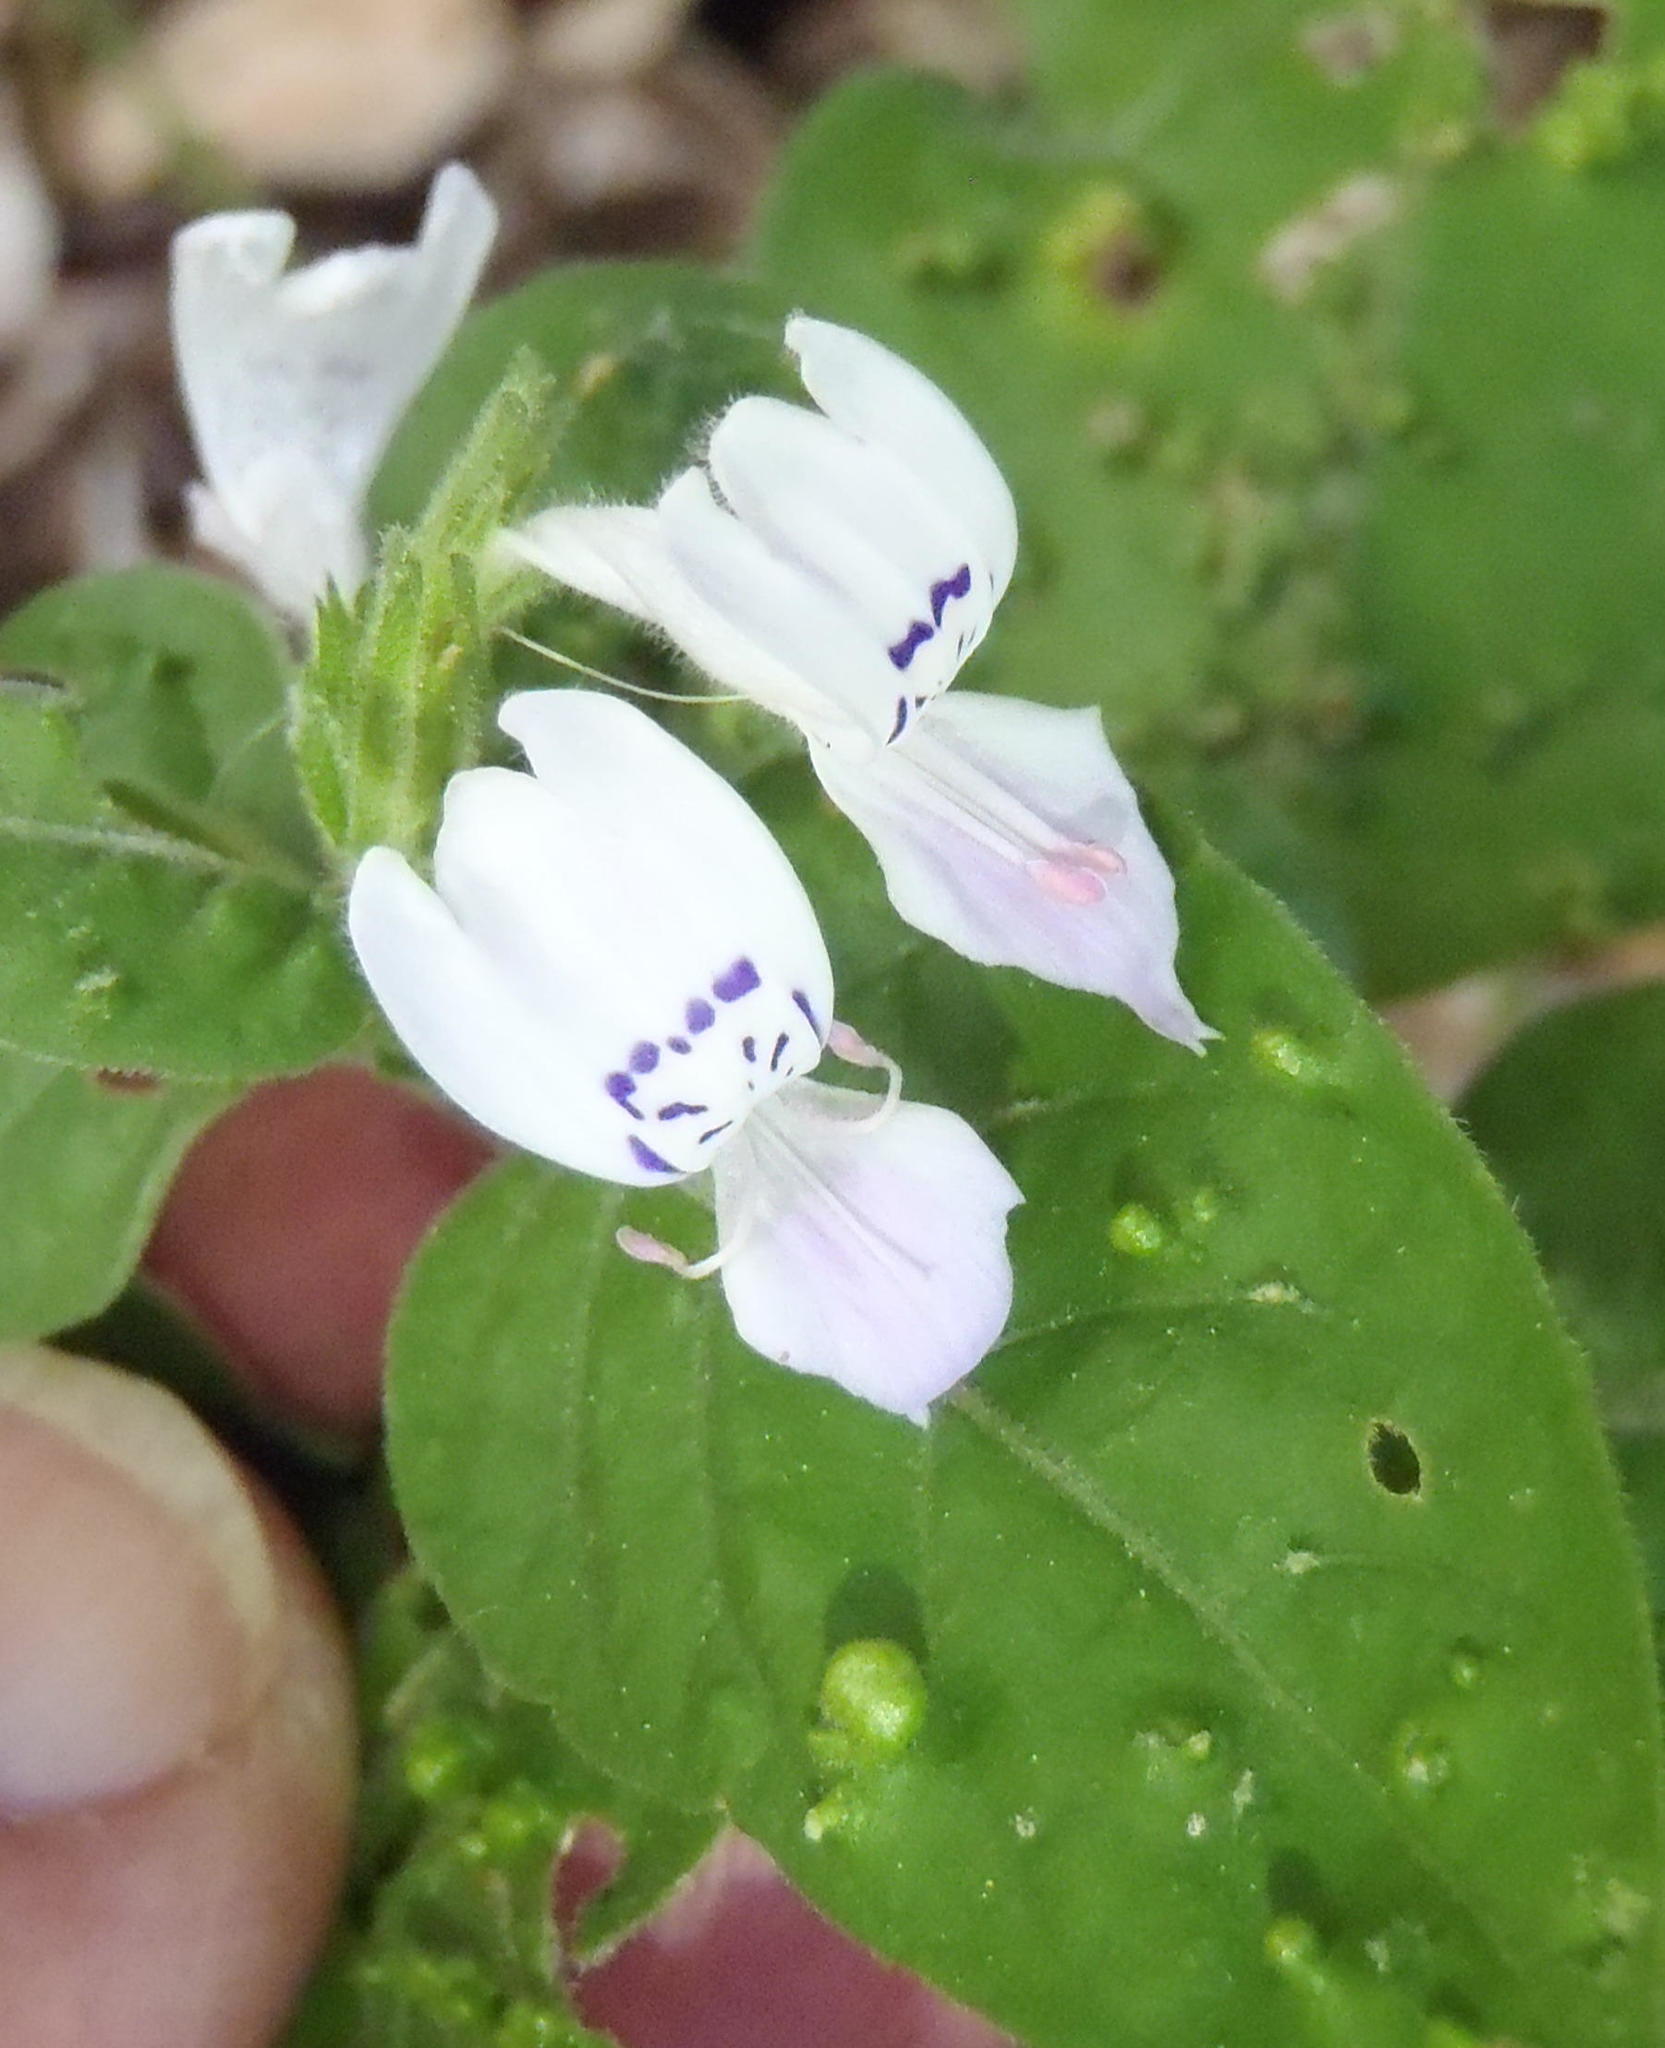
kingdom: Plantae
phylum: Tracheophyta
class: Magnoliopsida
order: Lamiales
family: Acanthaceae
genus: Hypoestes
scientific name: Hypoestes forskaolii
